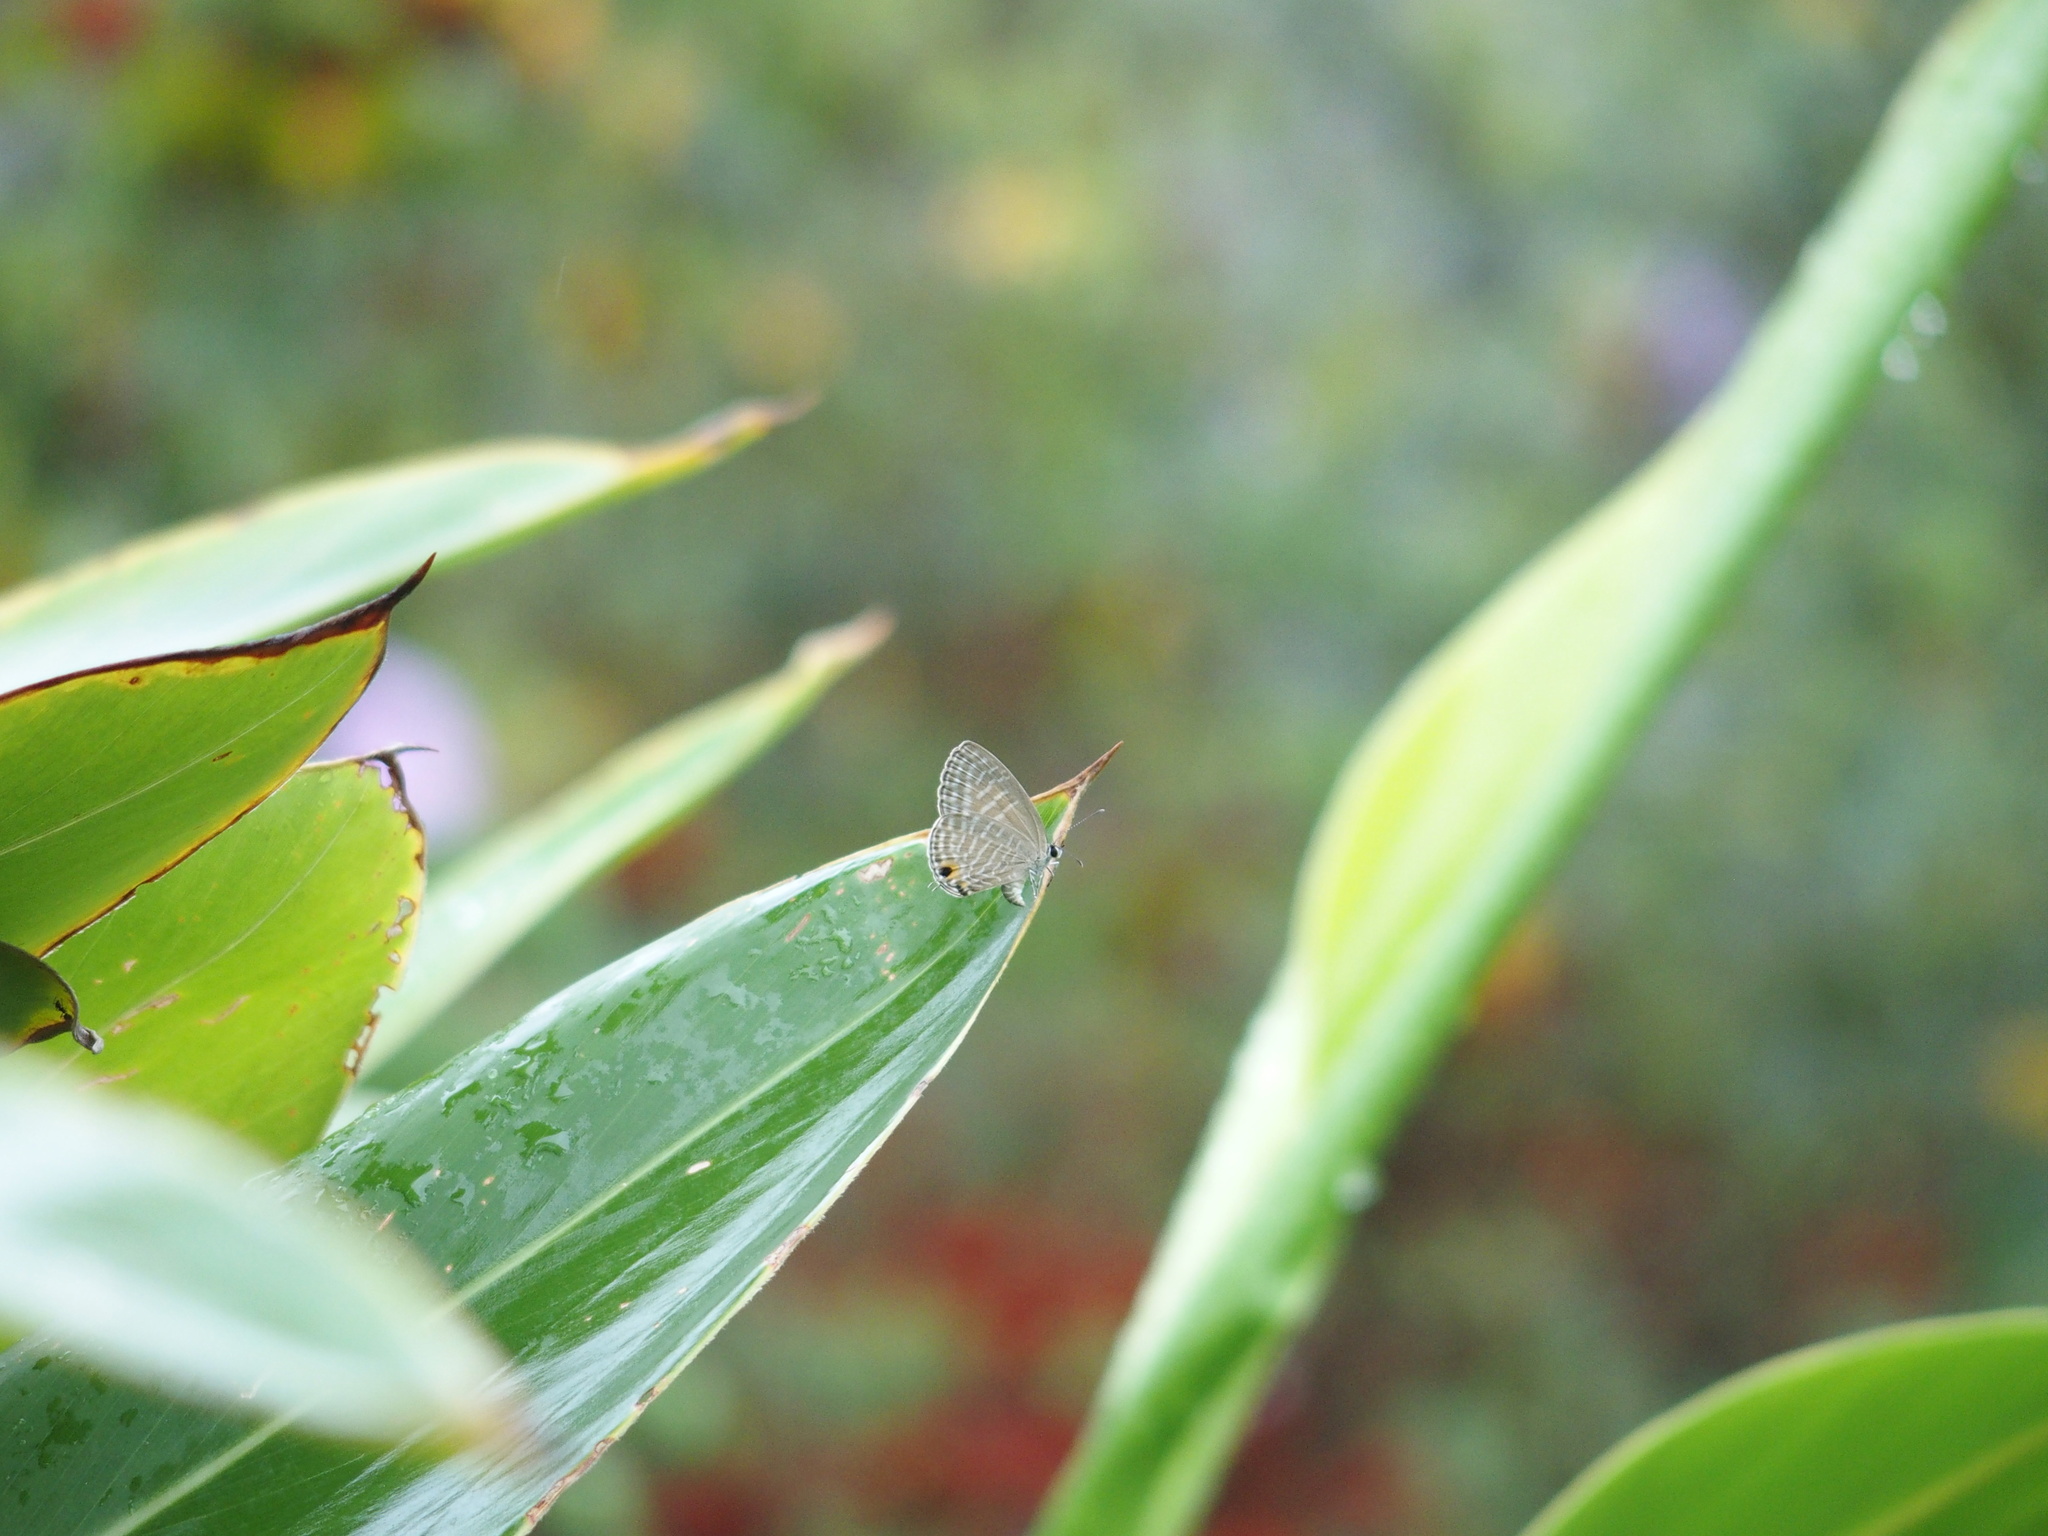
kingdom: Animalia
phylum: Arthropoda
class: Insecta
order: Lepidoptera
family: Lycaenidae
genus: Jamides
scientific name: Jamides alecto
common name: Metallic cerulean
